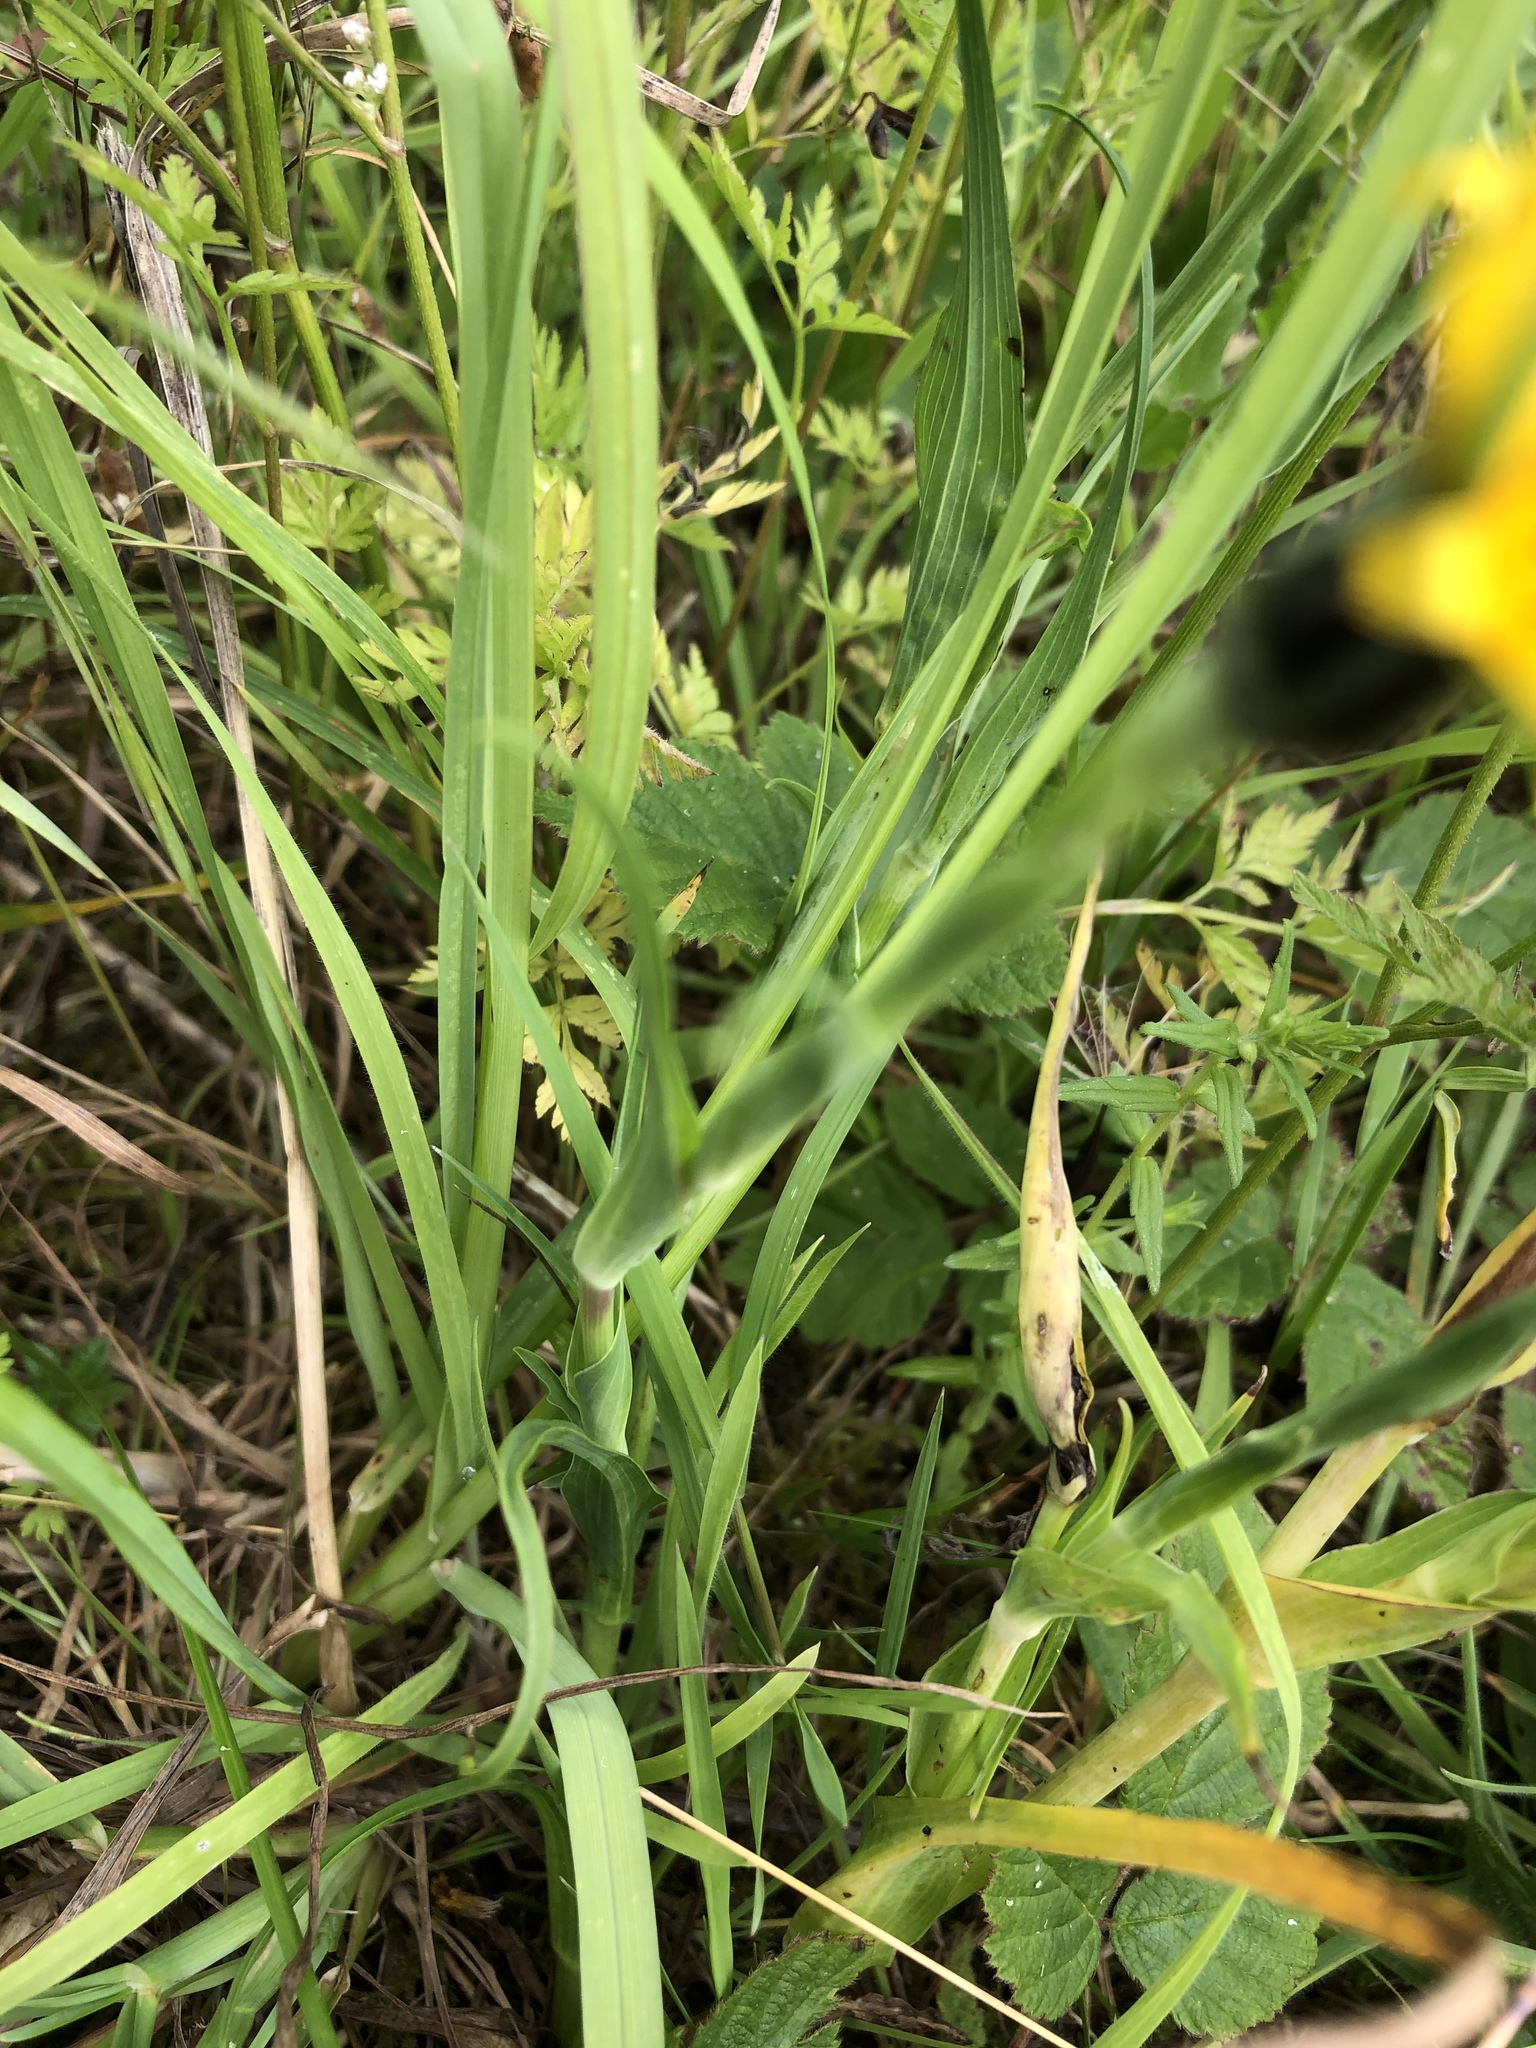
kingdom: Plantae
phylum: Tracheophyta
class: Magnoliopsida
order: Asterales
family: Asteraceae
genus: Tragopogon
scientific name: Tragopogon pratensis
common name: Goat's-beard
